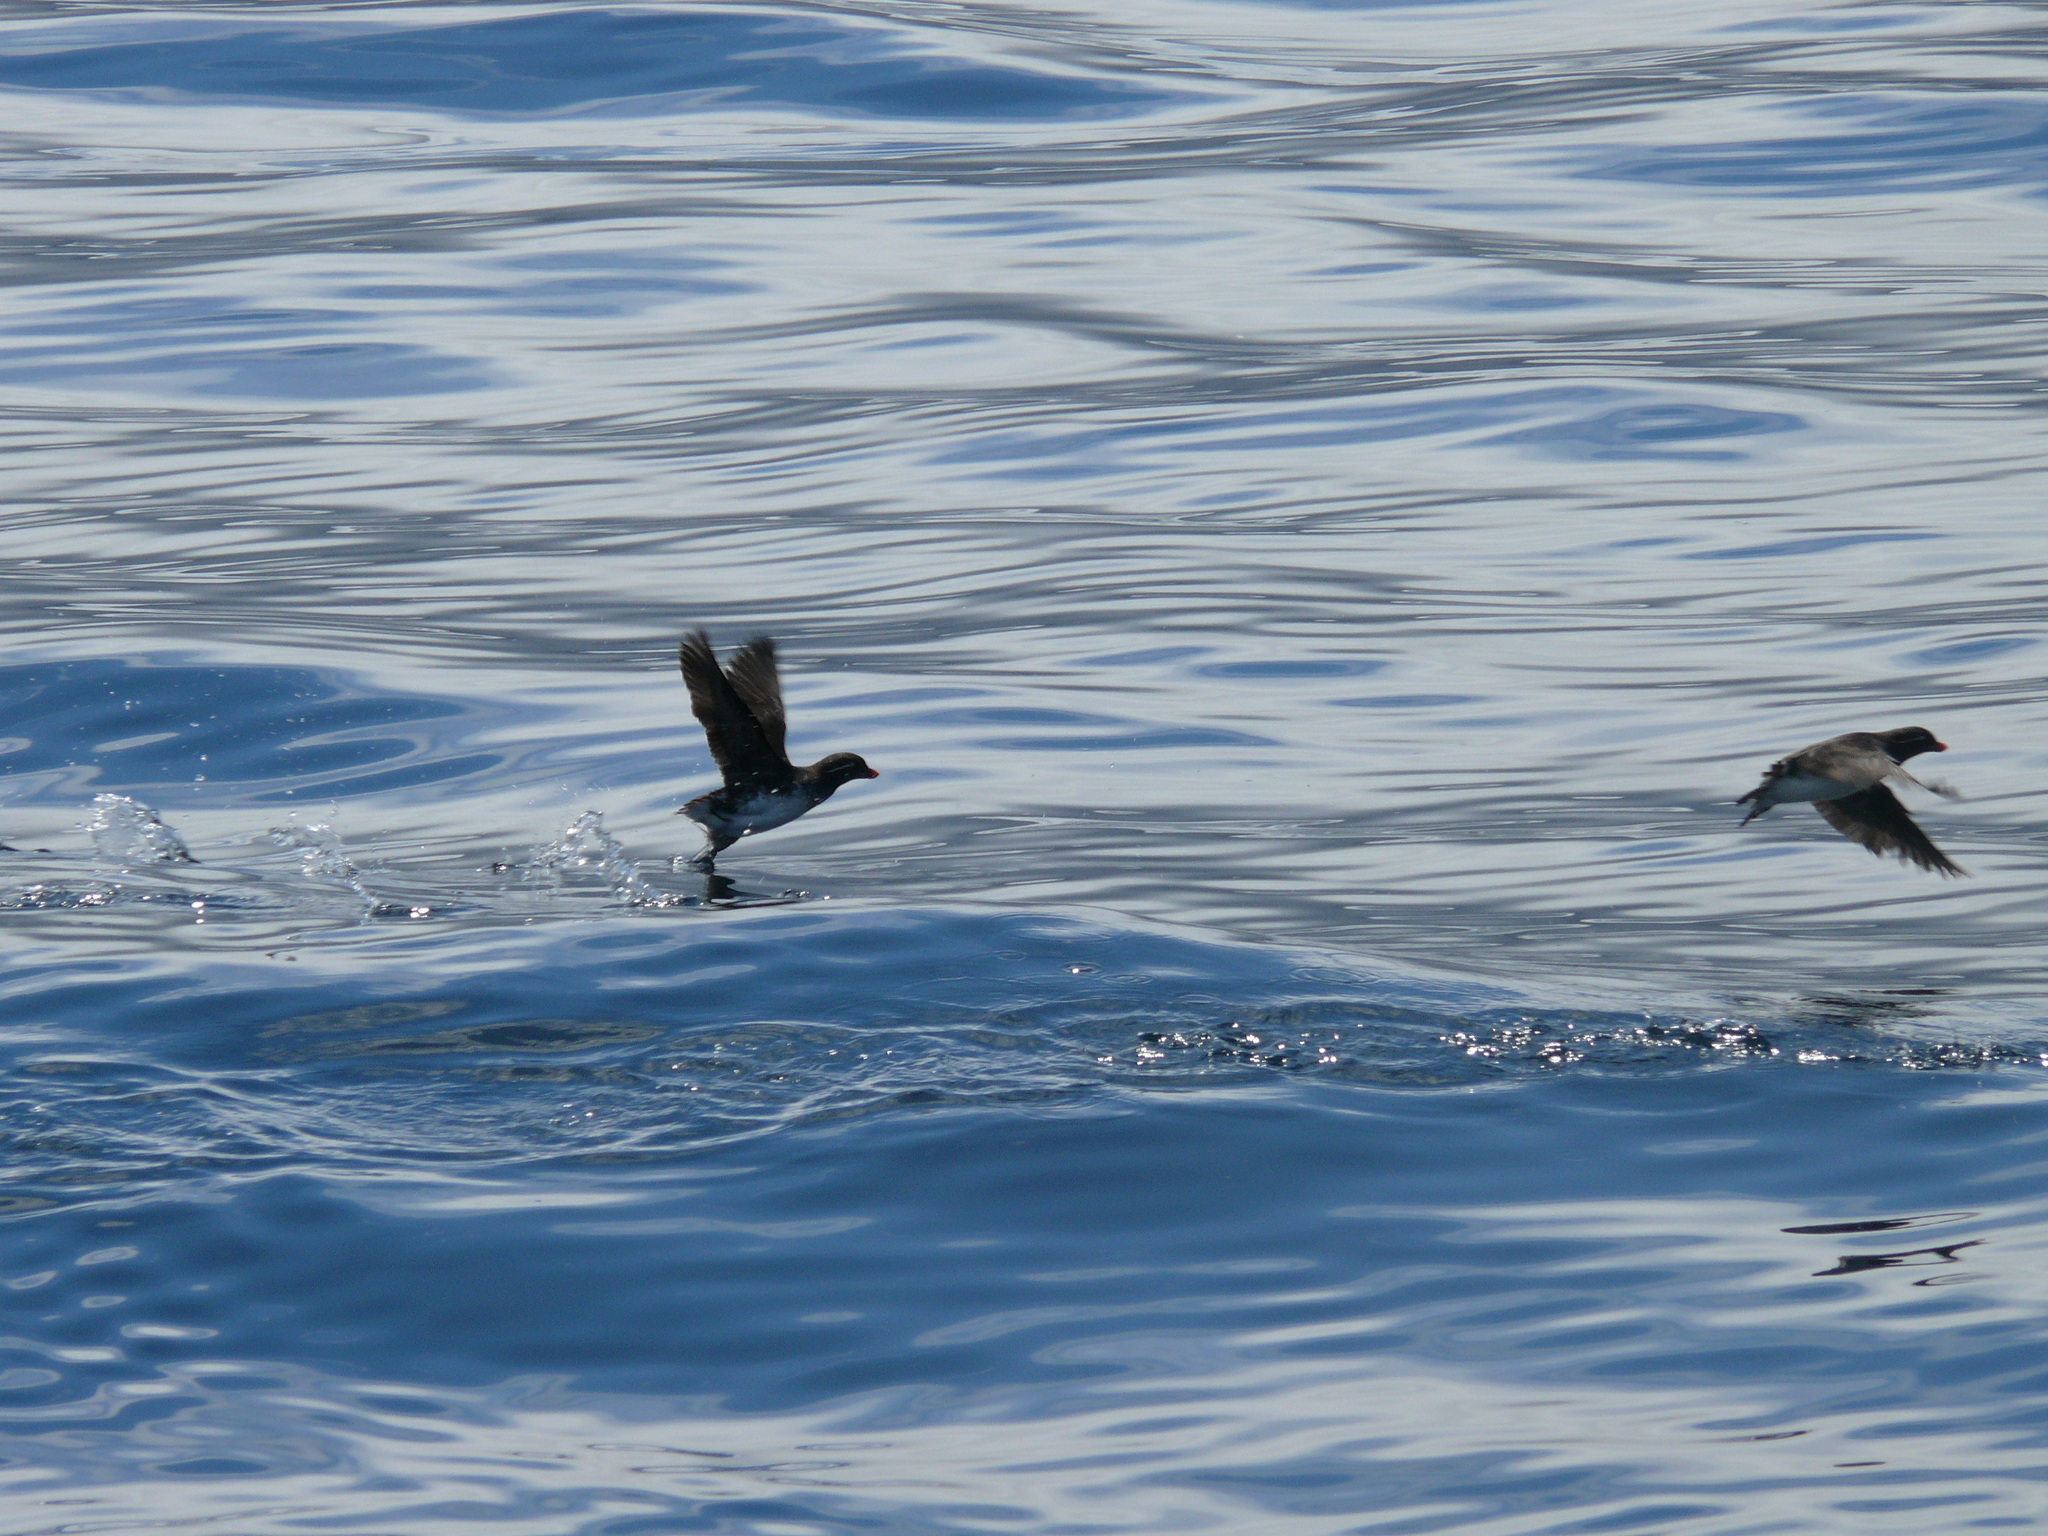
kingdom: Animalia
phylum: Chordata
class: Aves
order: Charadriiformes
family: Alcidae
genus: Aethia
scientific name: Aethia psittacula
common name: Parakeet auklet
